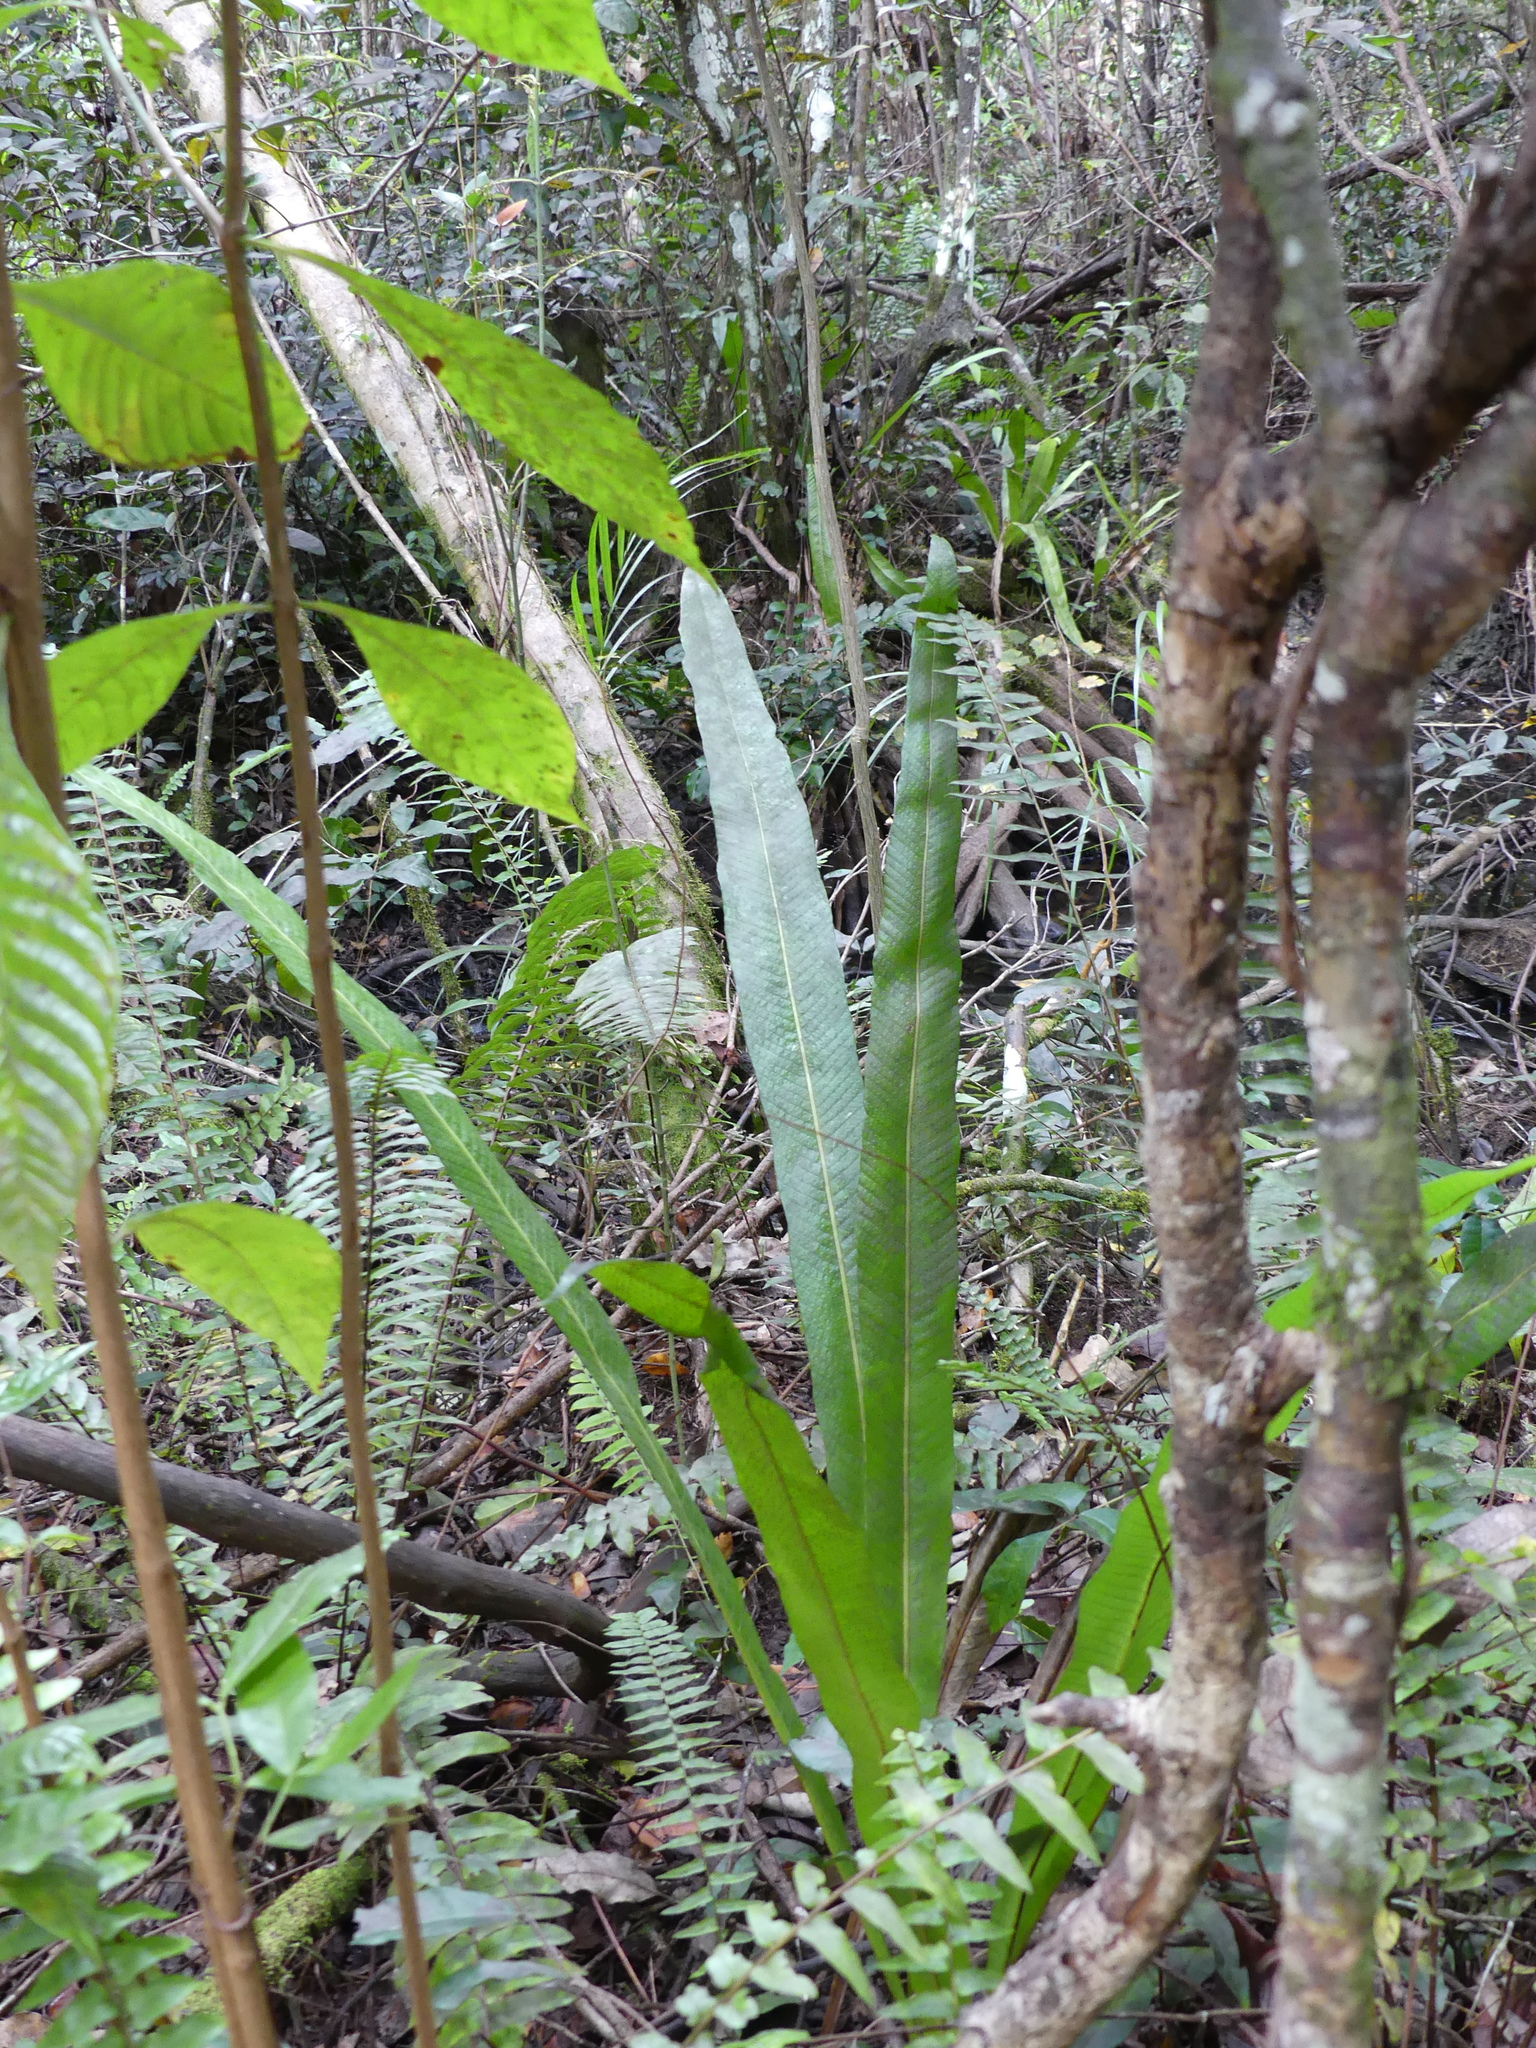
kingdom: Plantae
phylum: Tracheophyta
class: Polypodiopsida
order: Polypodiales
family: Polypodiaceae
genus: Campyloneurum
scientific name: Campyloneurum phyllitidis
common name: Cow-tongue fern
